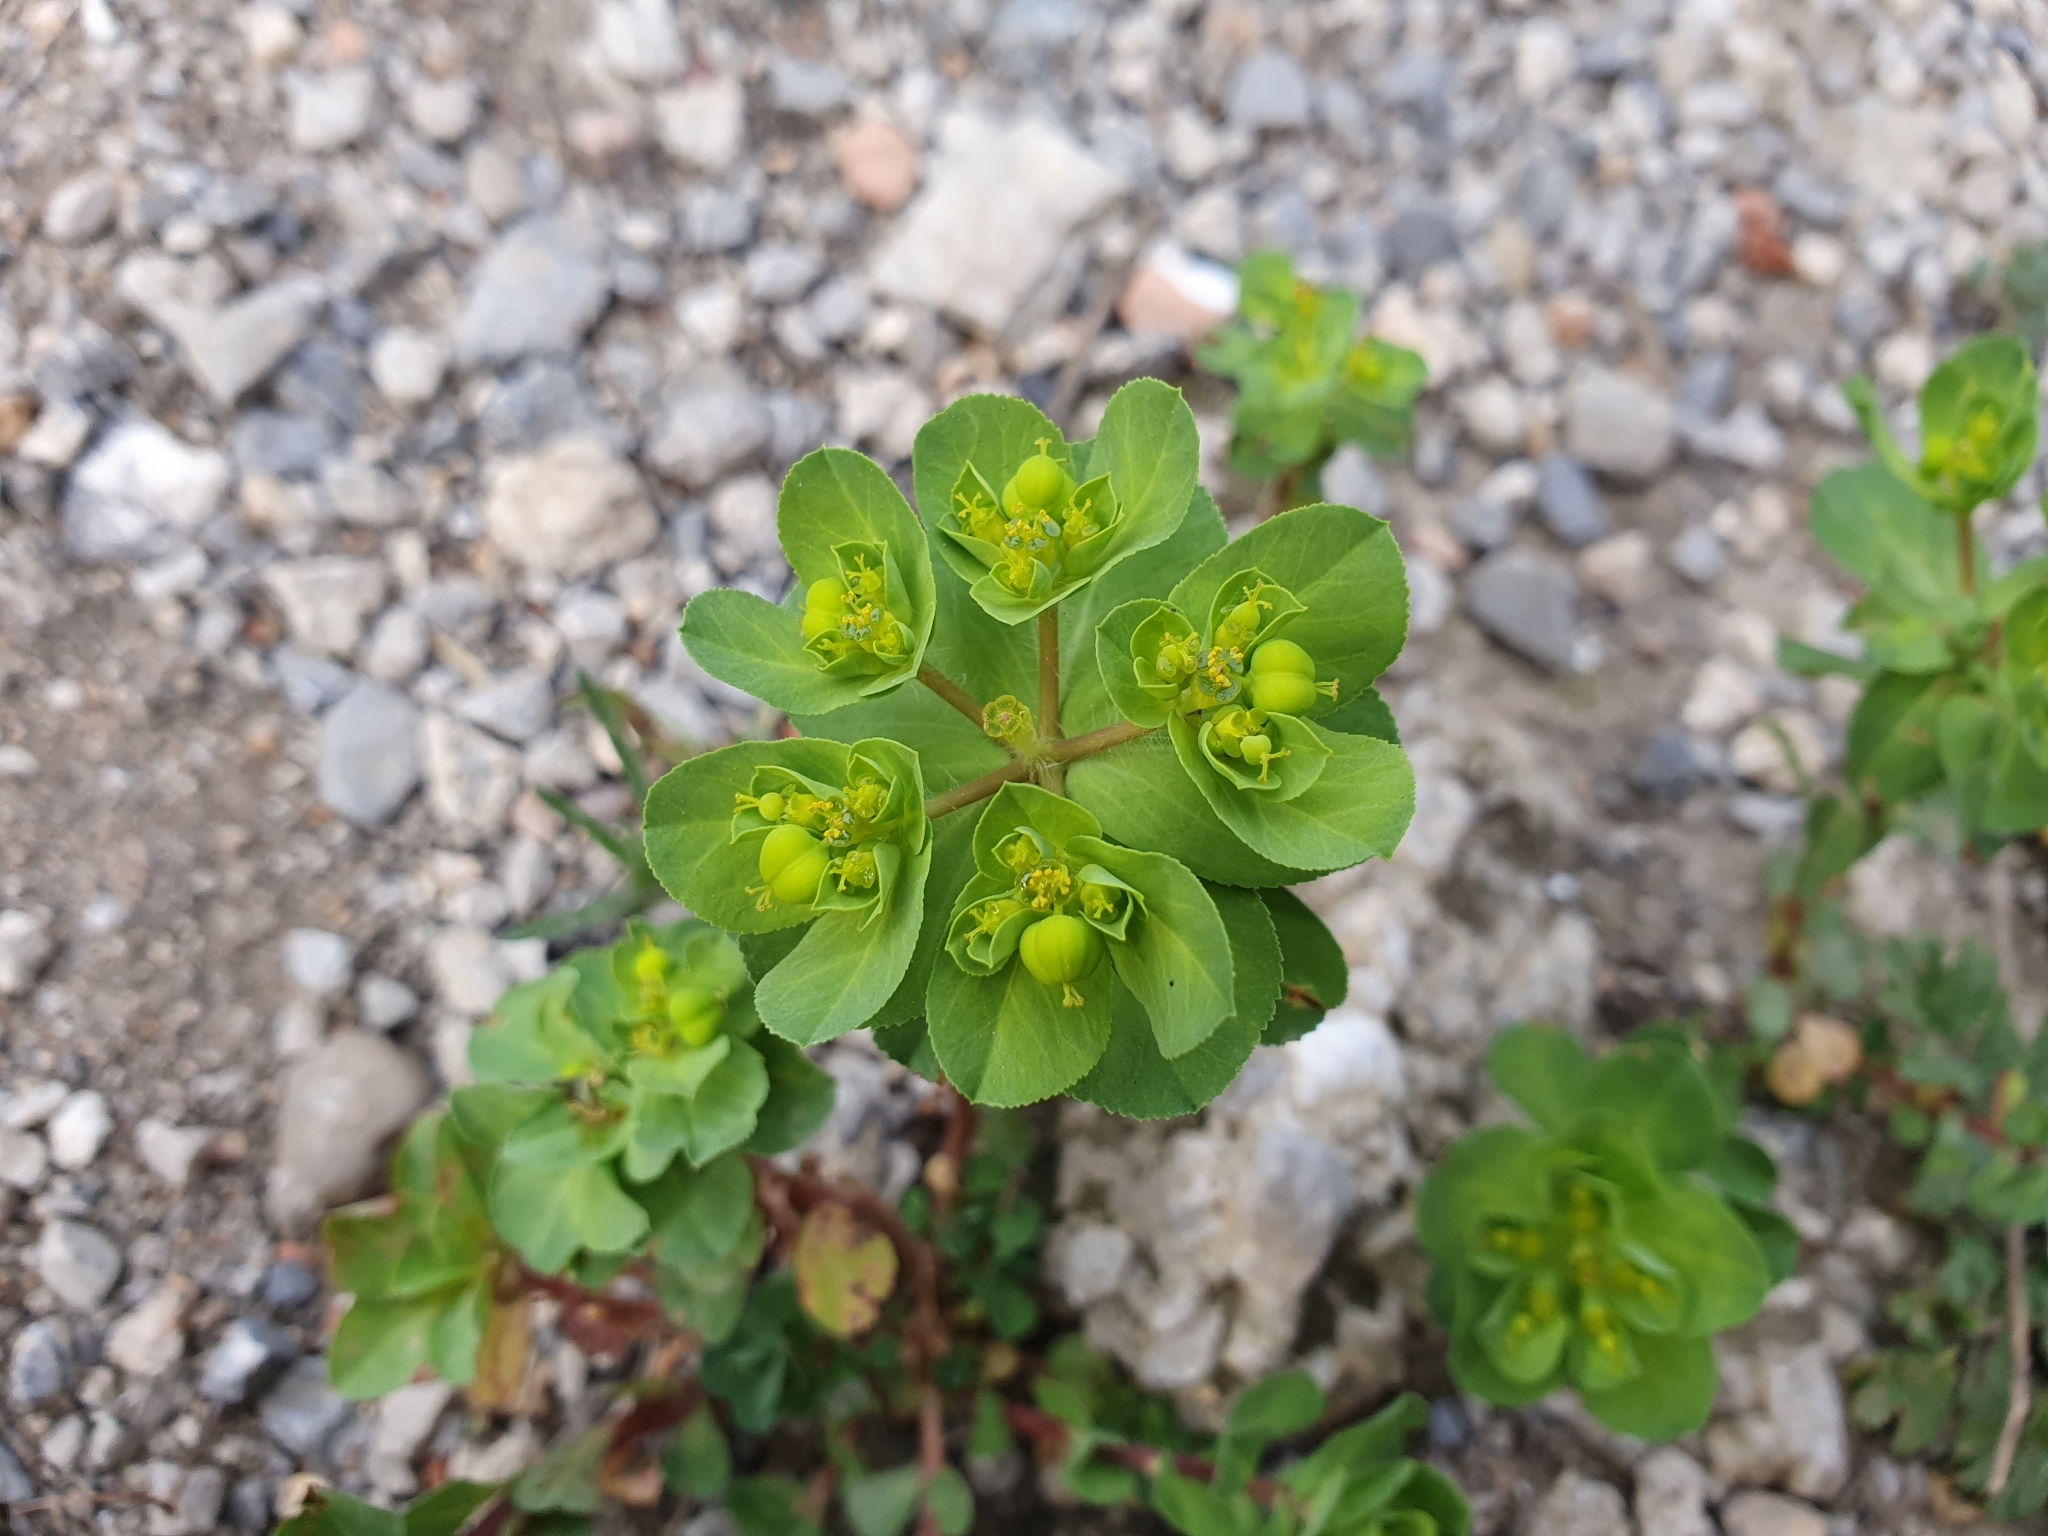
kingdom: Plantae
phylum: Tracheophyta
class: Magnoliopsida
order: Malpighiales
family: Euphorbiaceae
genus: Euphorbia
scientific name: Euphorbia helioscopia
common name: Sun spurge
